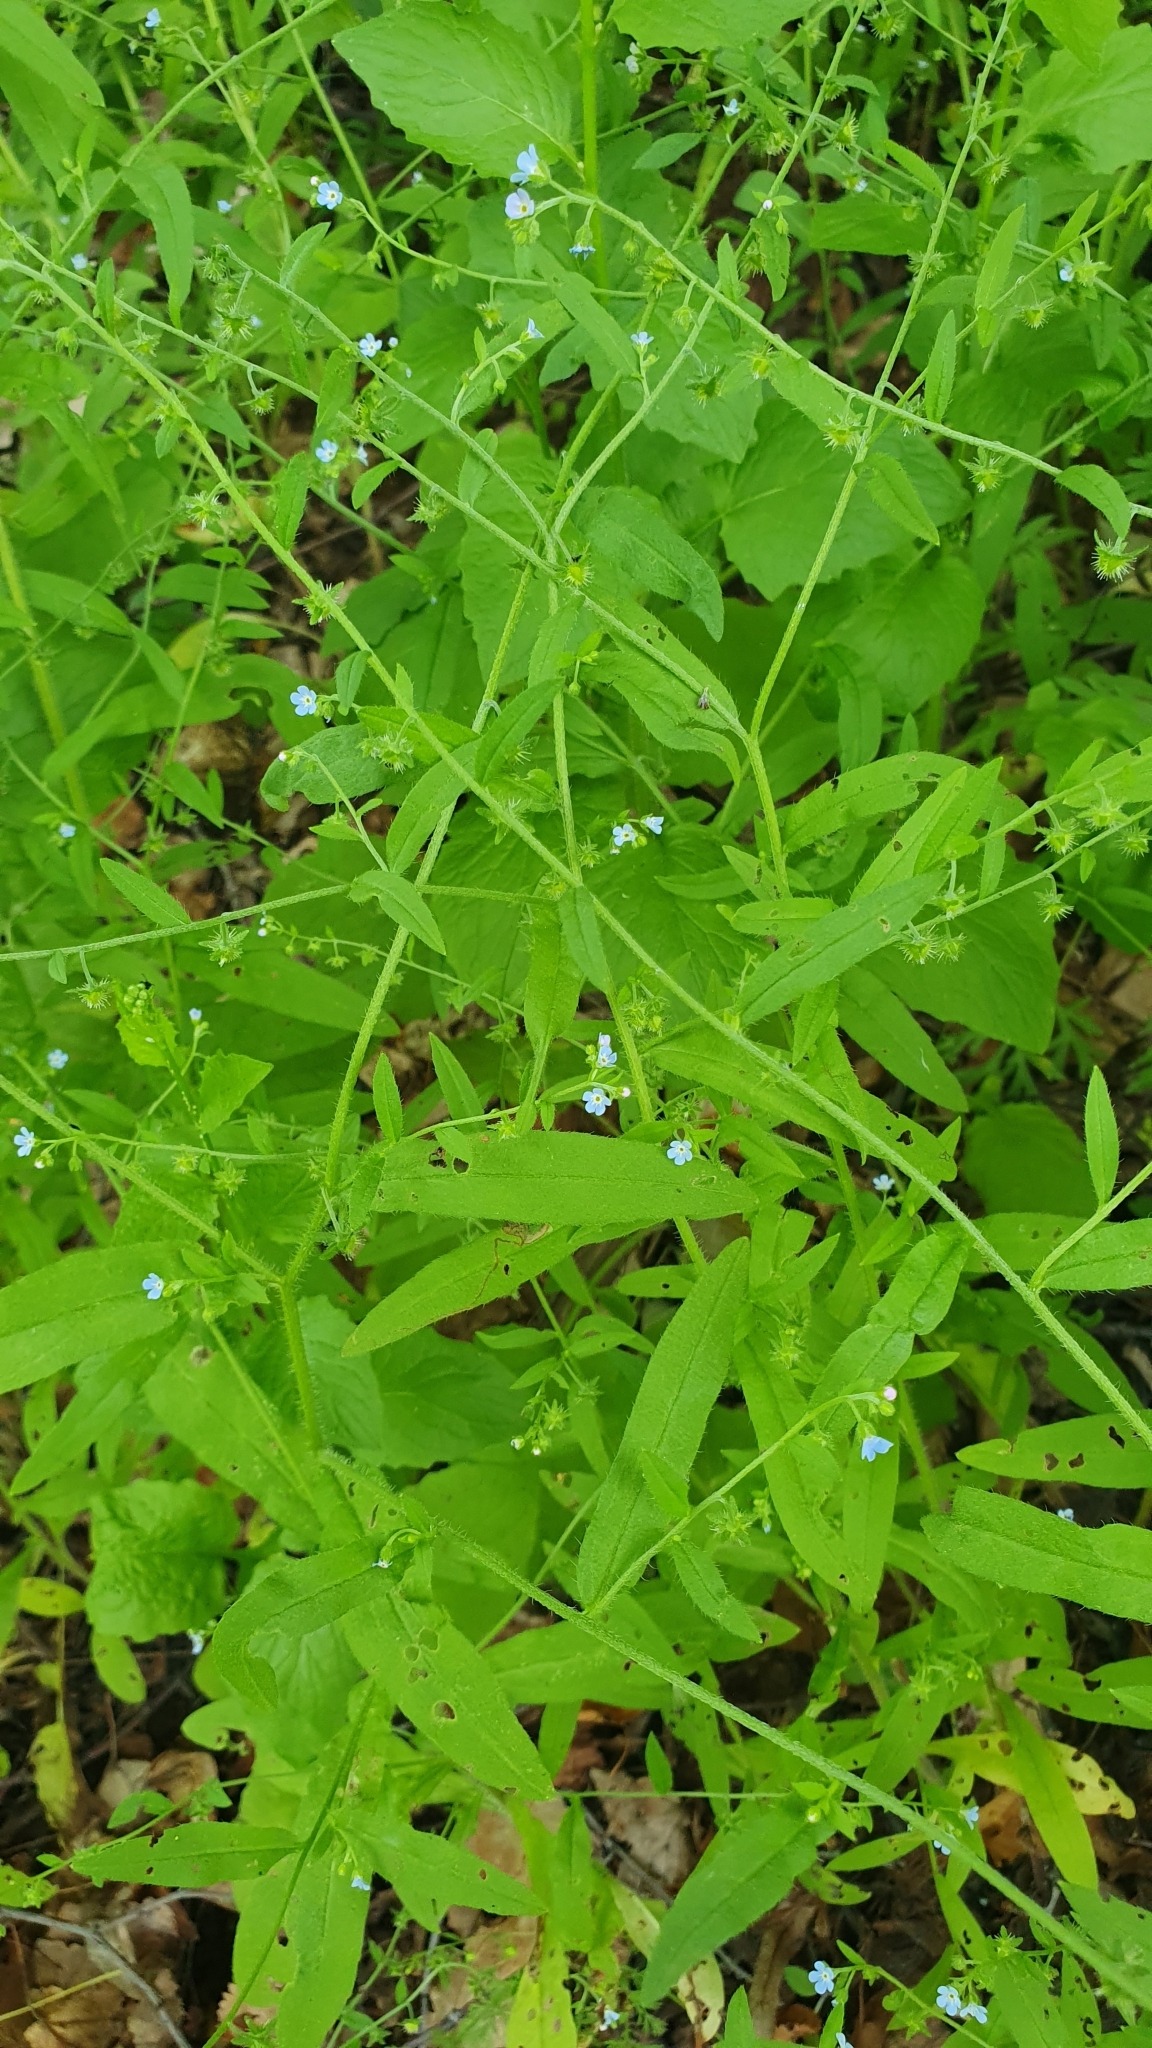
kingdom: Plantae
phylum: Tracheophyta
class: Magnoliopsida
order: Boraginales
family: Boraginaceae
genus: Hackelia
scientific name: Hackelia deflexa
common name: Nodding stickseed
